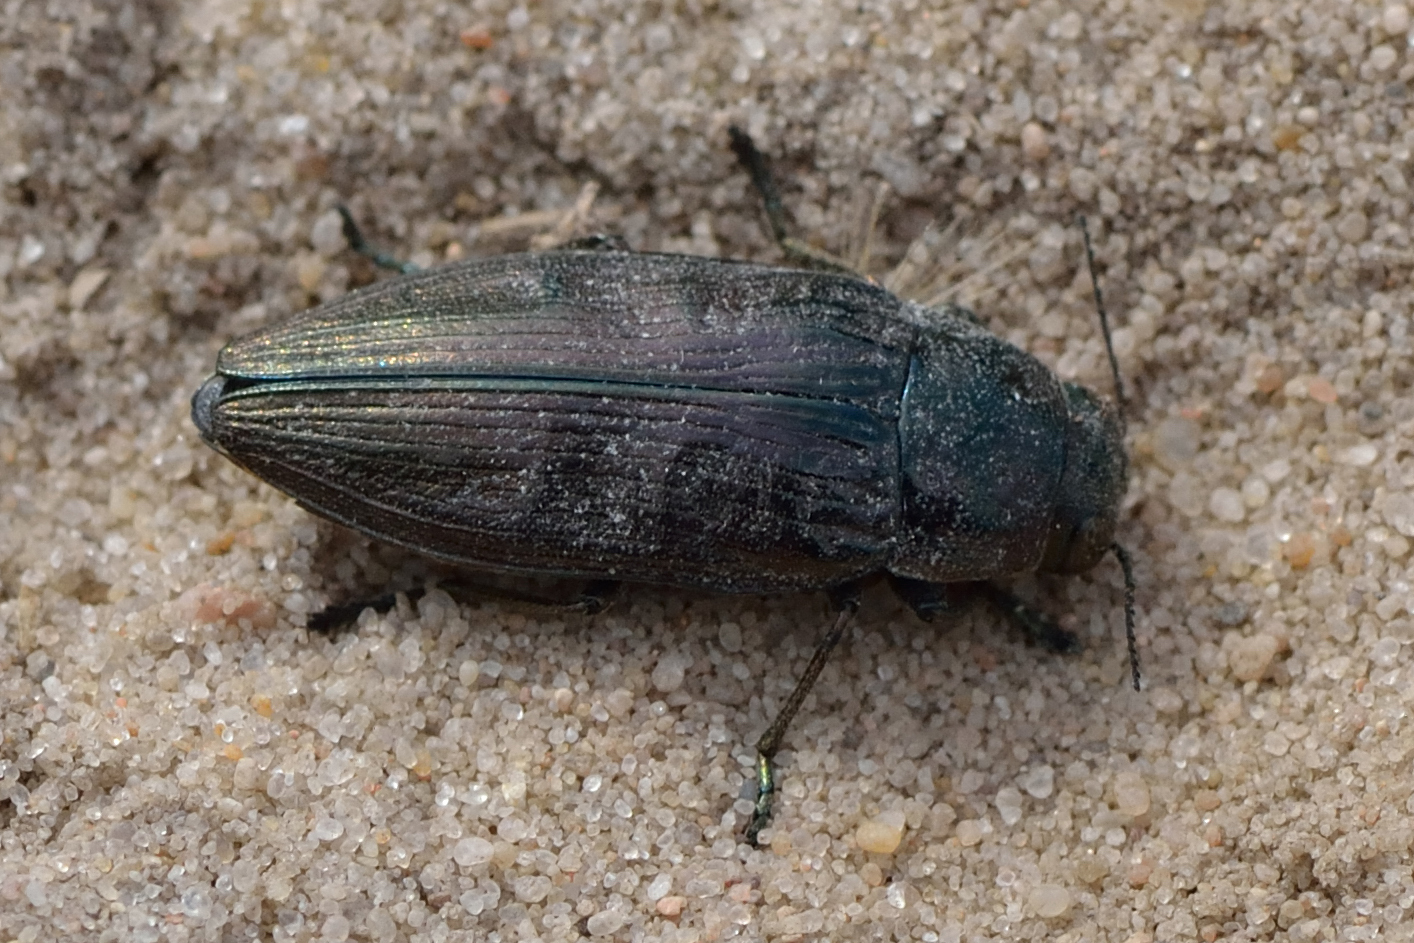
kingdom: Animalia
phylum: Arthropoda
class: Insecta
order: Coleoptera
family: Buprestidae
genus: Buprestis
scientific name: Buprestis haemorrhoidalis
